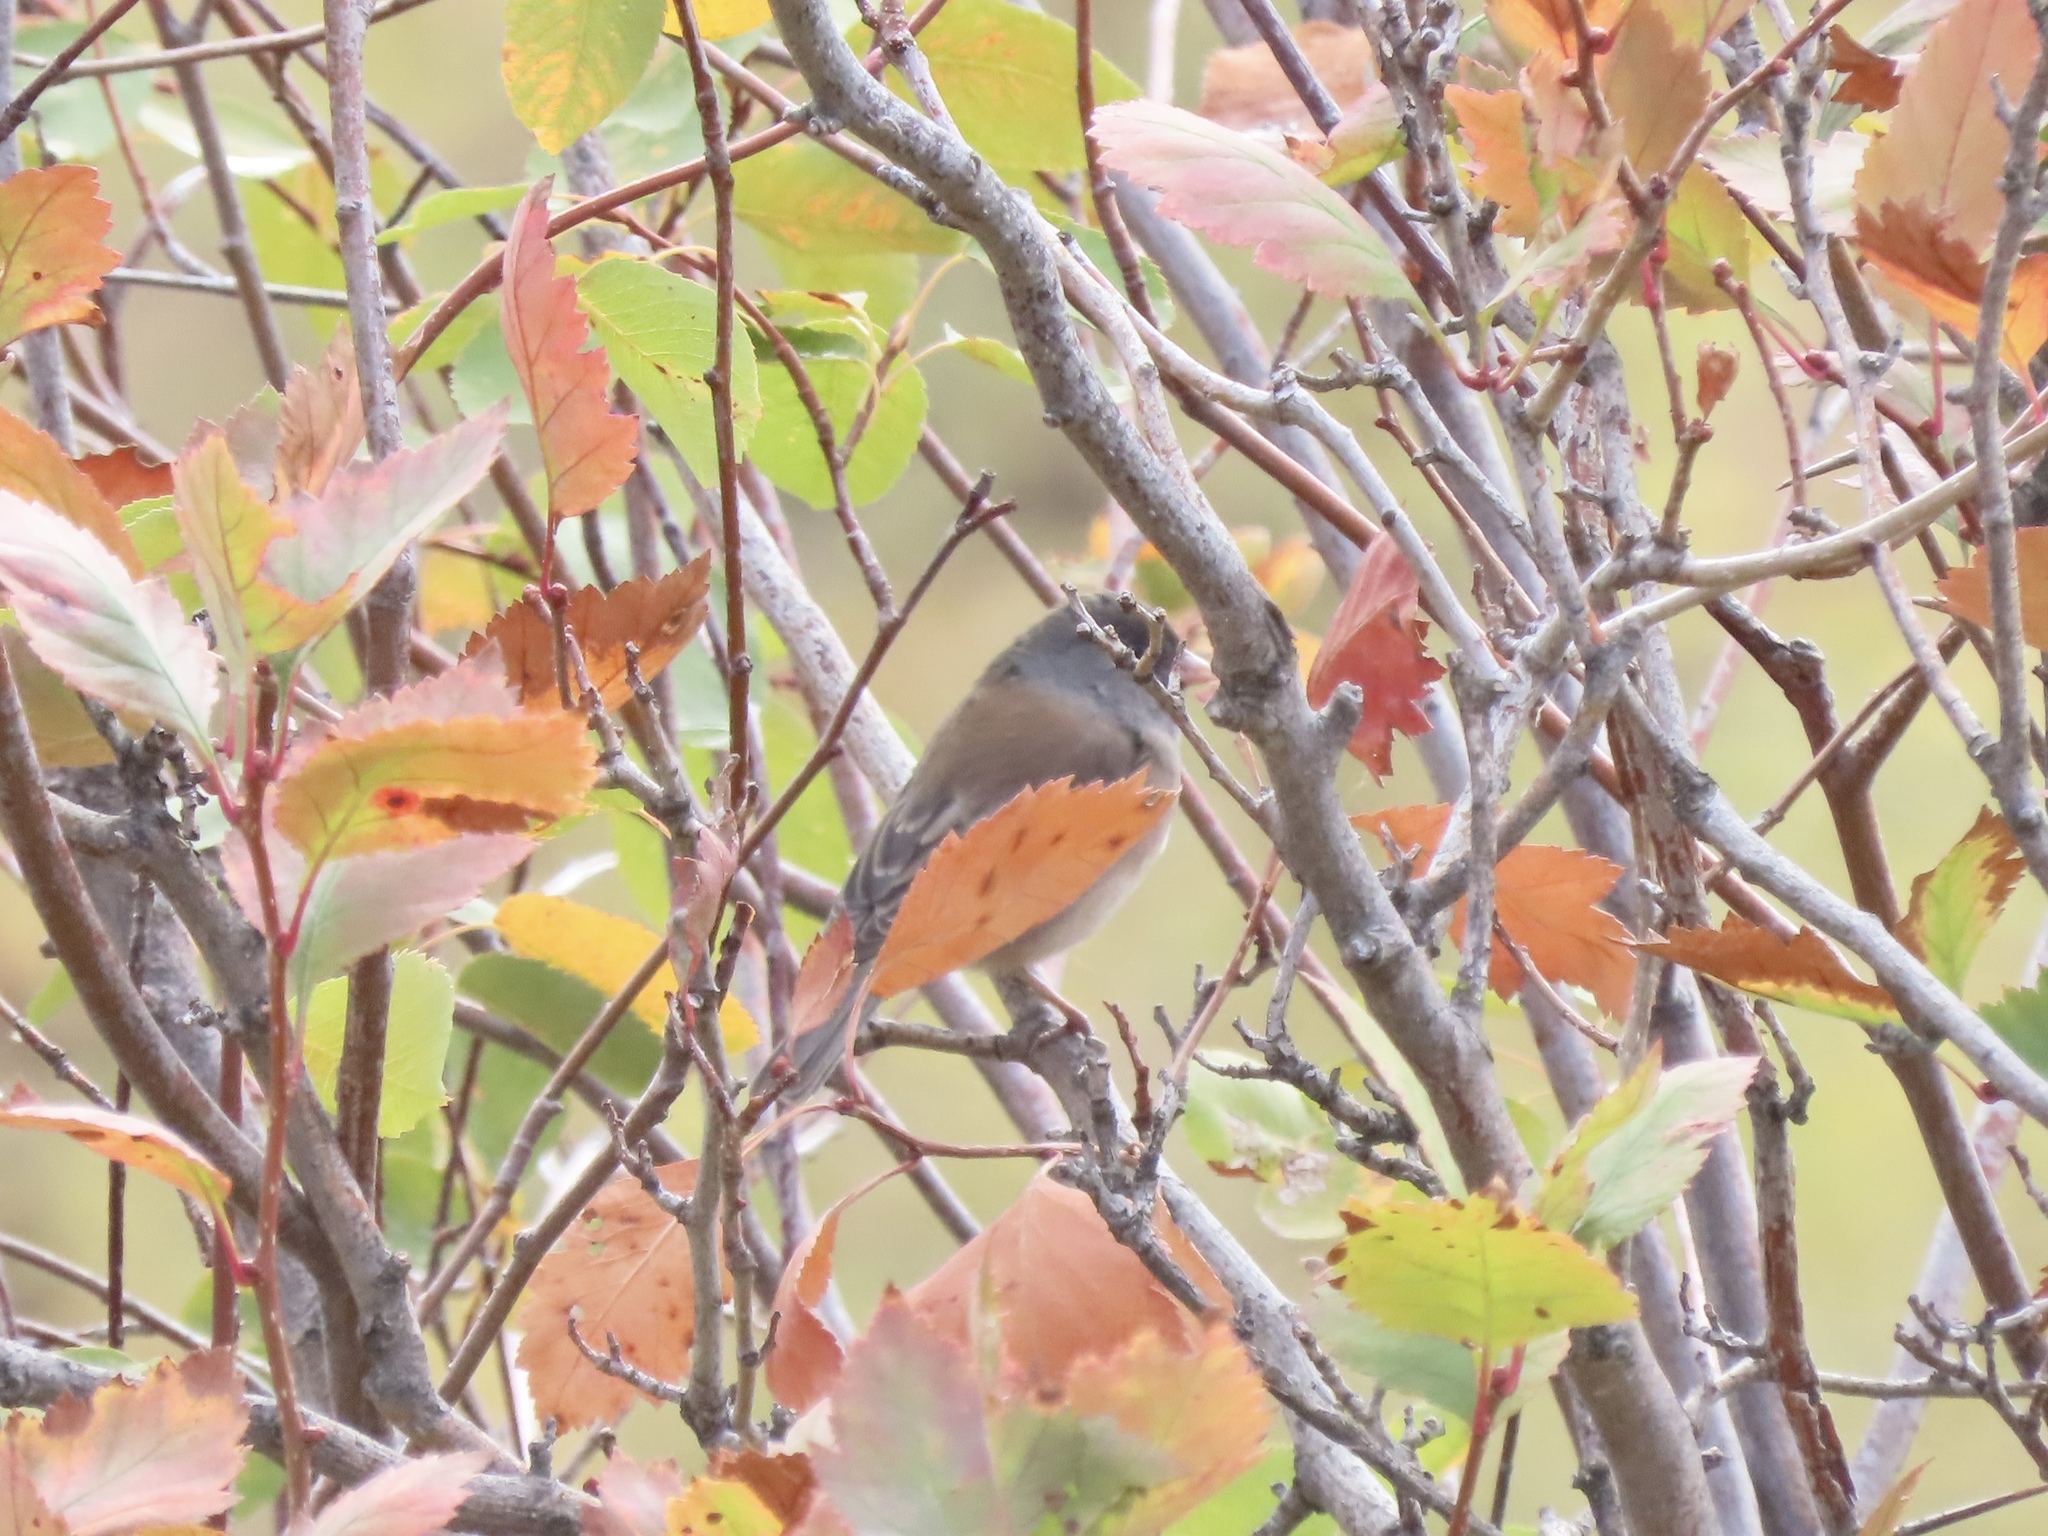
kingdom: Animalia
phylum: Chordata
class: Aves
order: Passeriformes
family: Passerellidae
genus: Junco
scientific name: Junco hyemalis
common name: Dark-eyed junco
